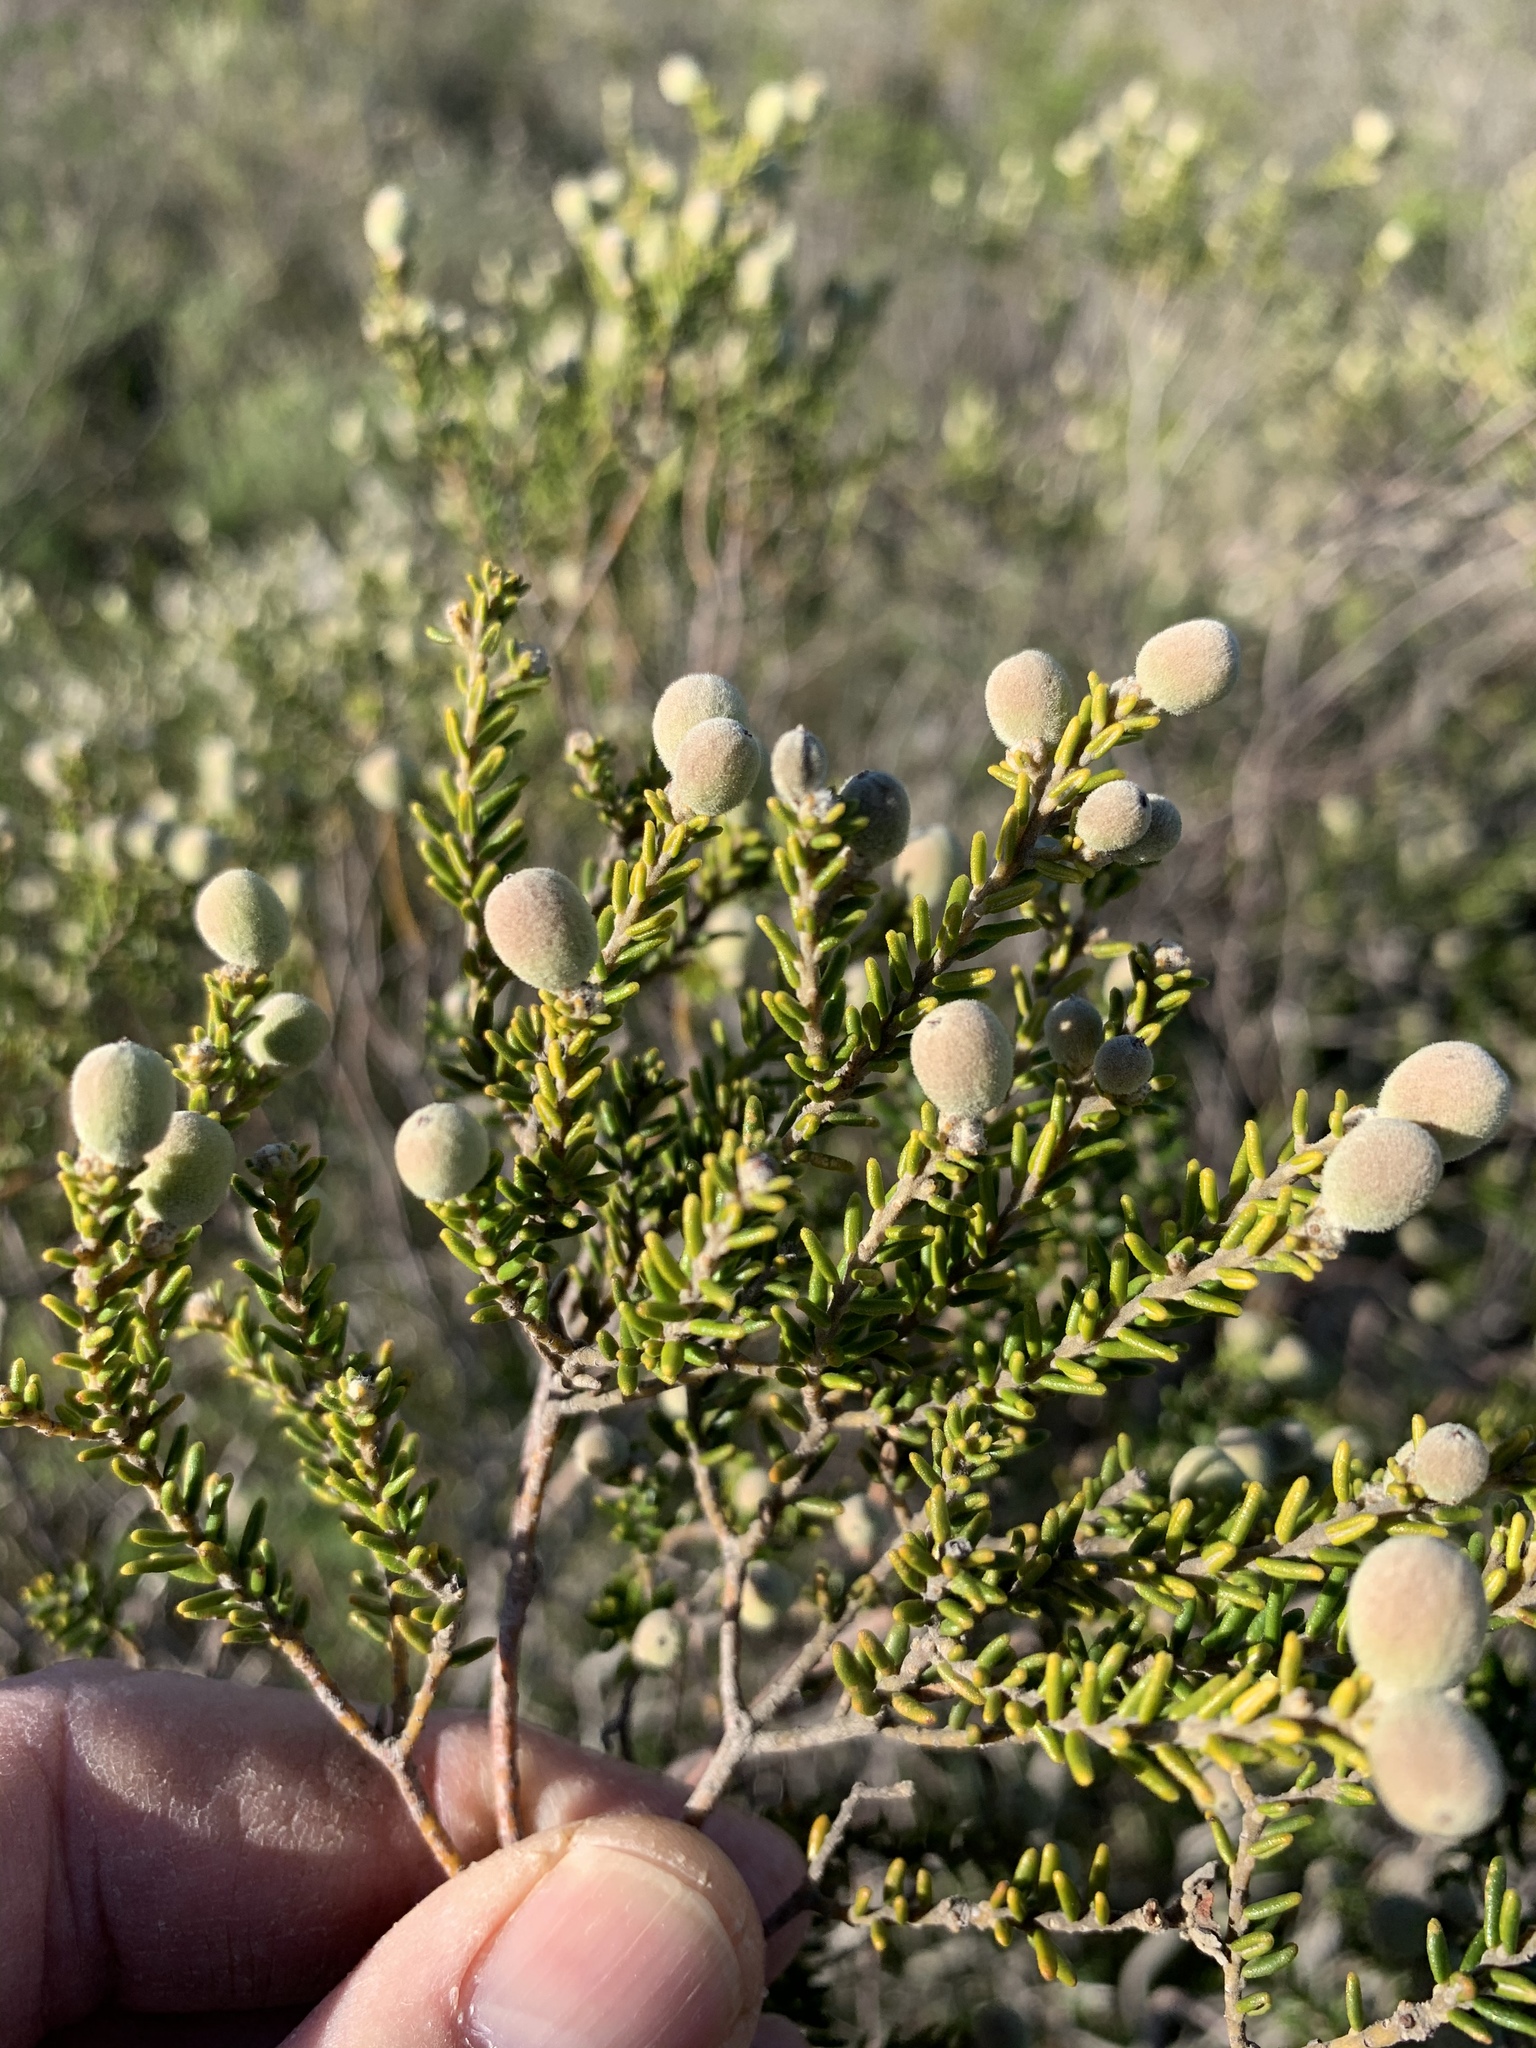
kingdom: Plantae
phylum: Tracheophyta
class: Magnoliopsida
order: Rosales
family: Rhamnaceae
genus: Phylica
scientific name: Phylica cephalantha
